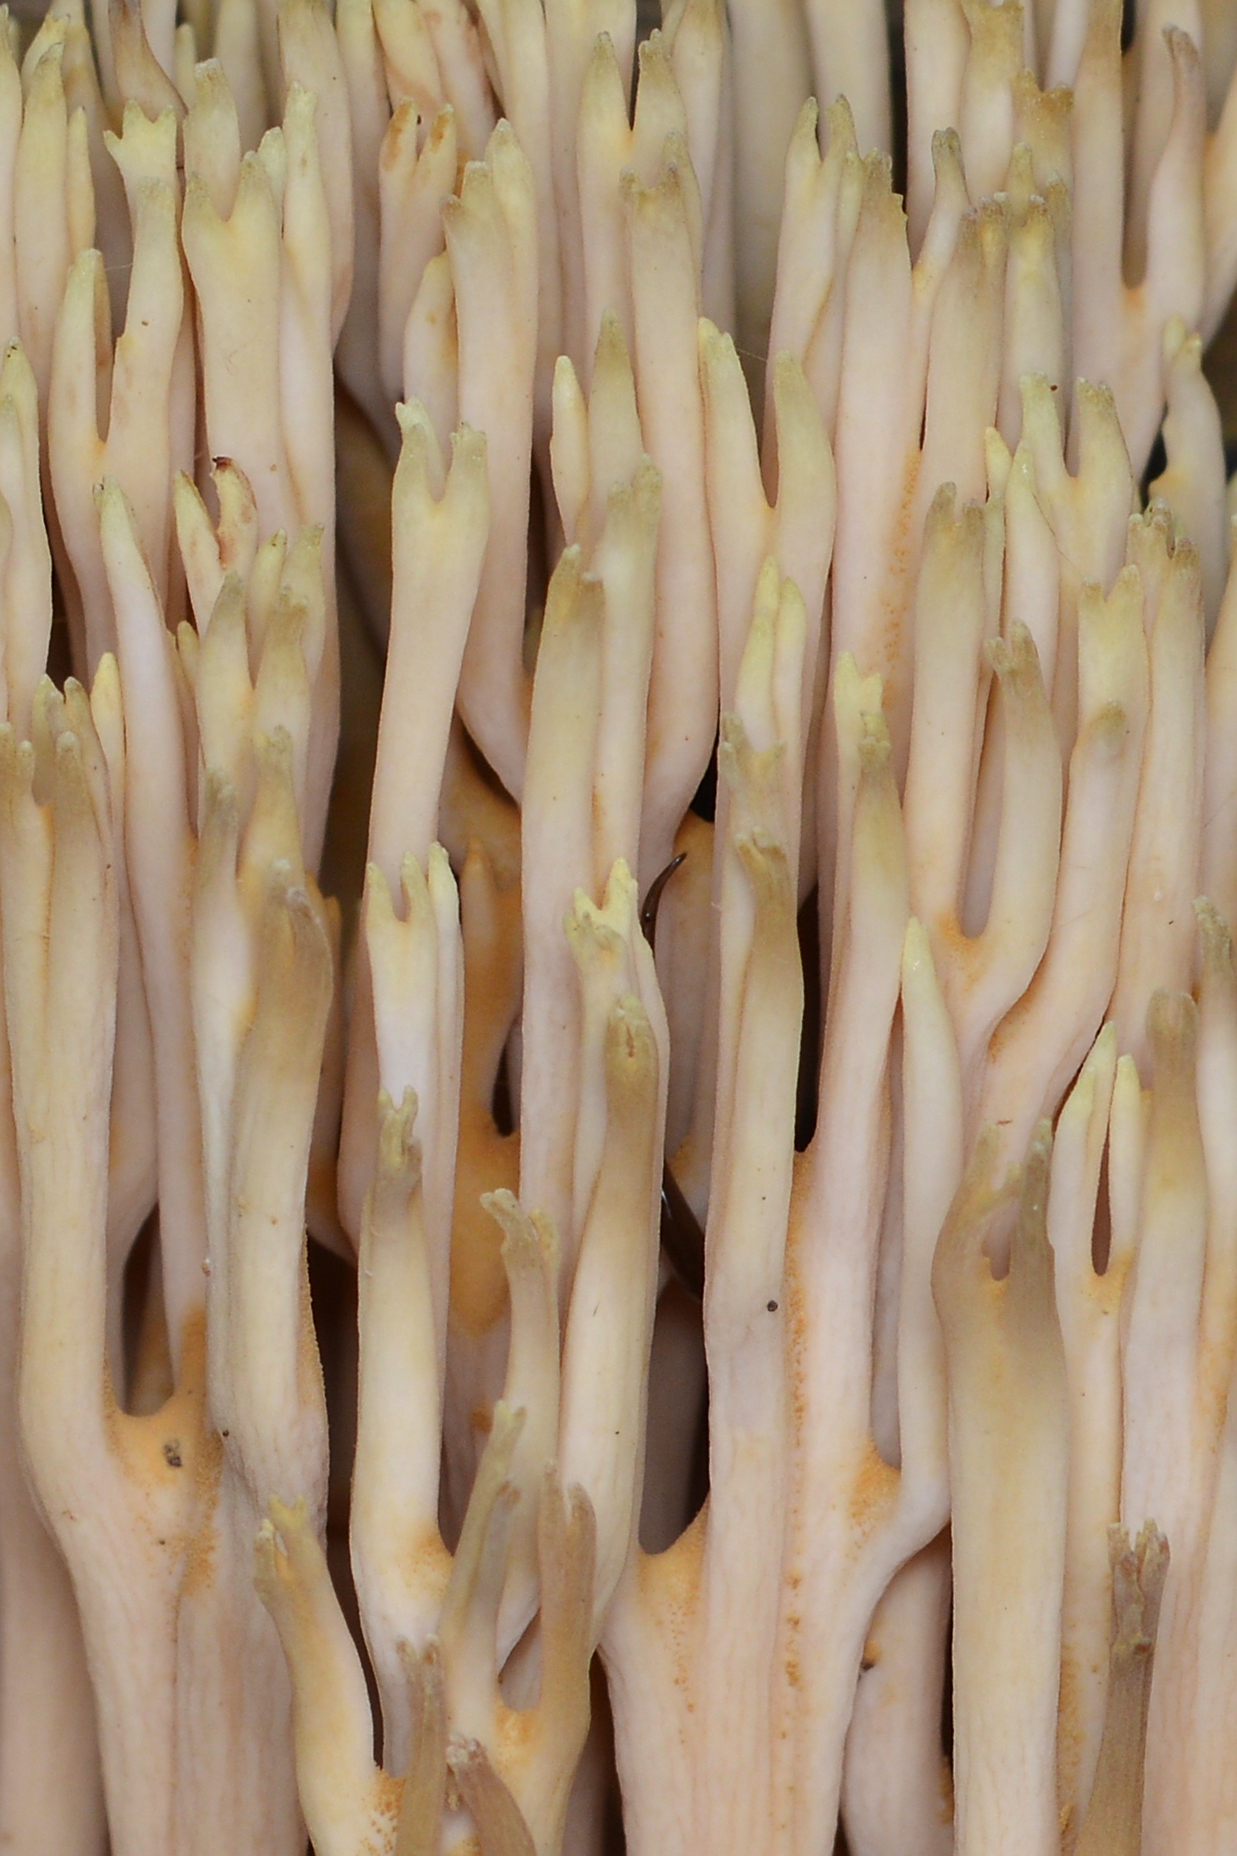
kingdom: Fungi
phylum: Basidiomycota
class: Agaricomycetes
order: Gomphales
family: Gomphaceae
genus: Ramaria
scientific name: Ramaria stricta
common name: Upright coral
